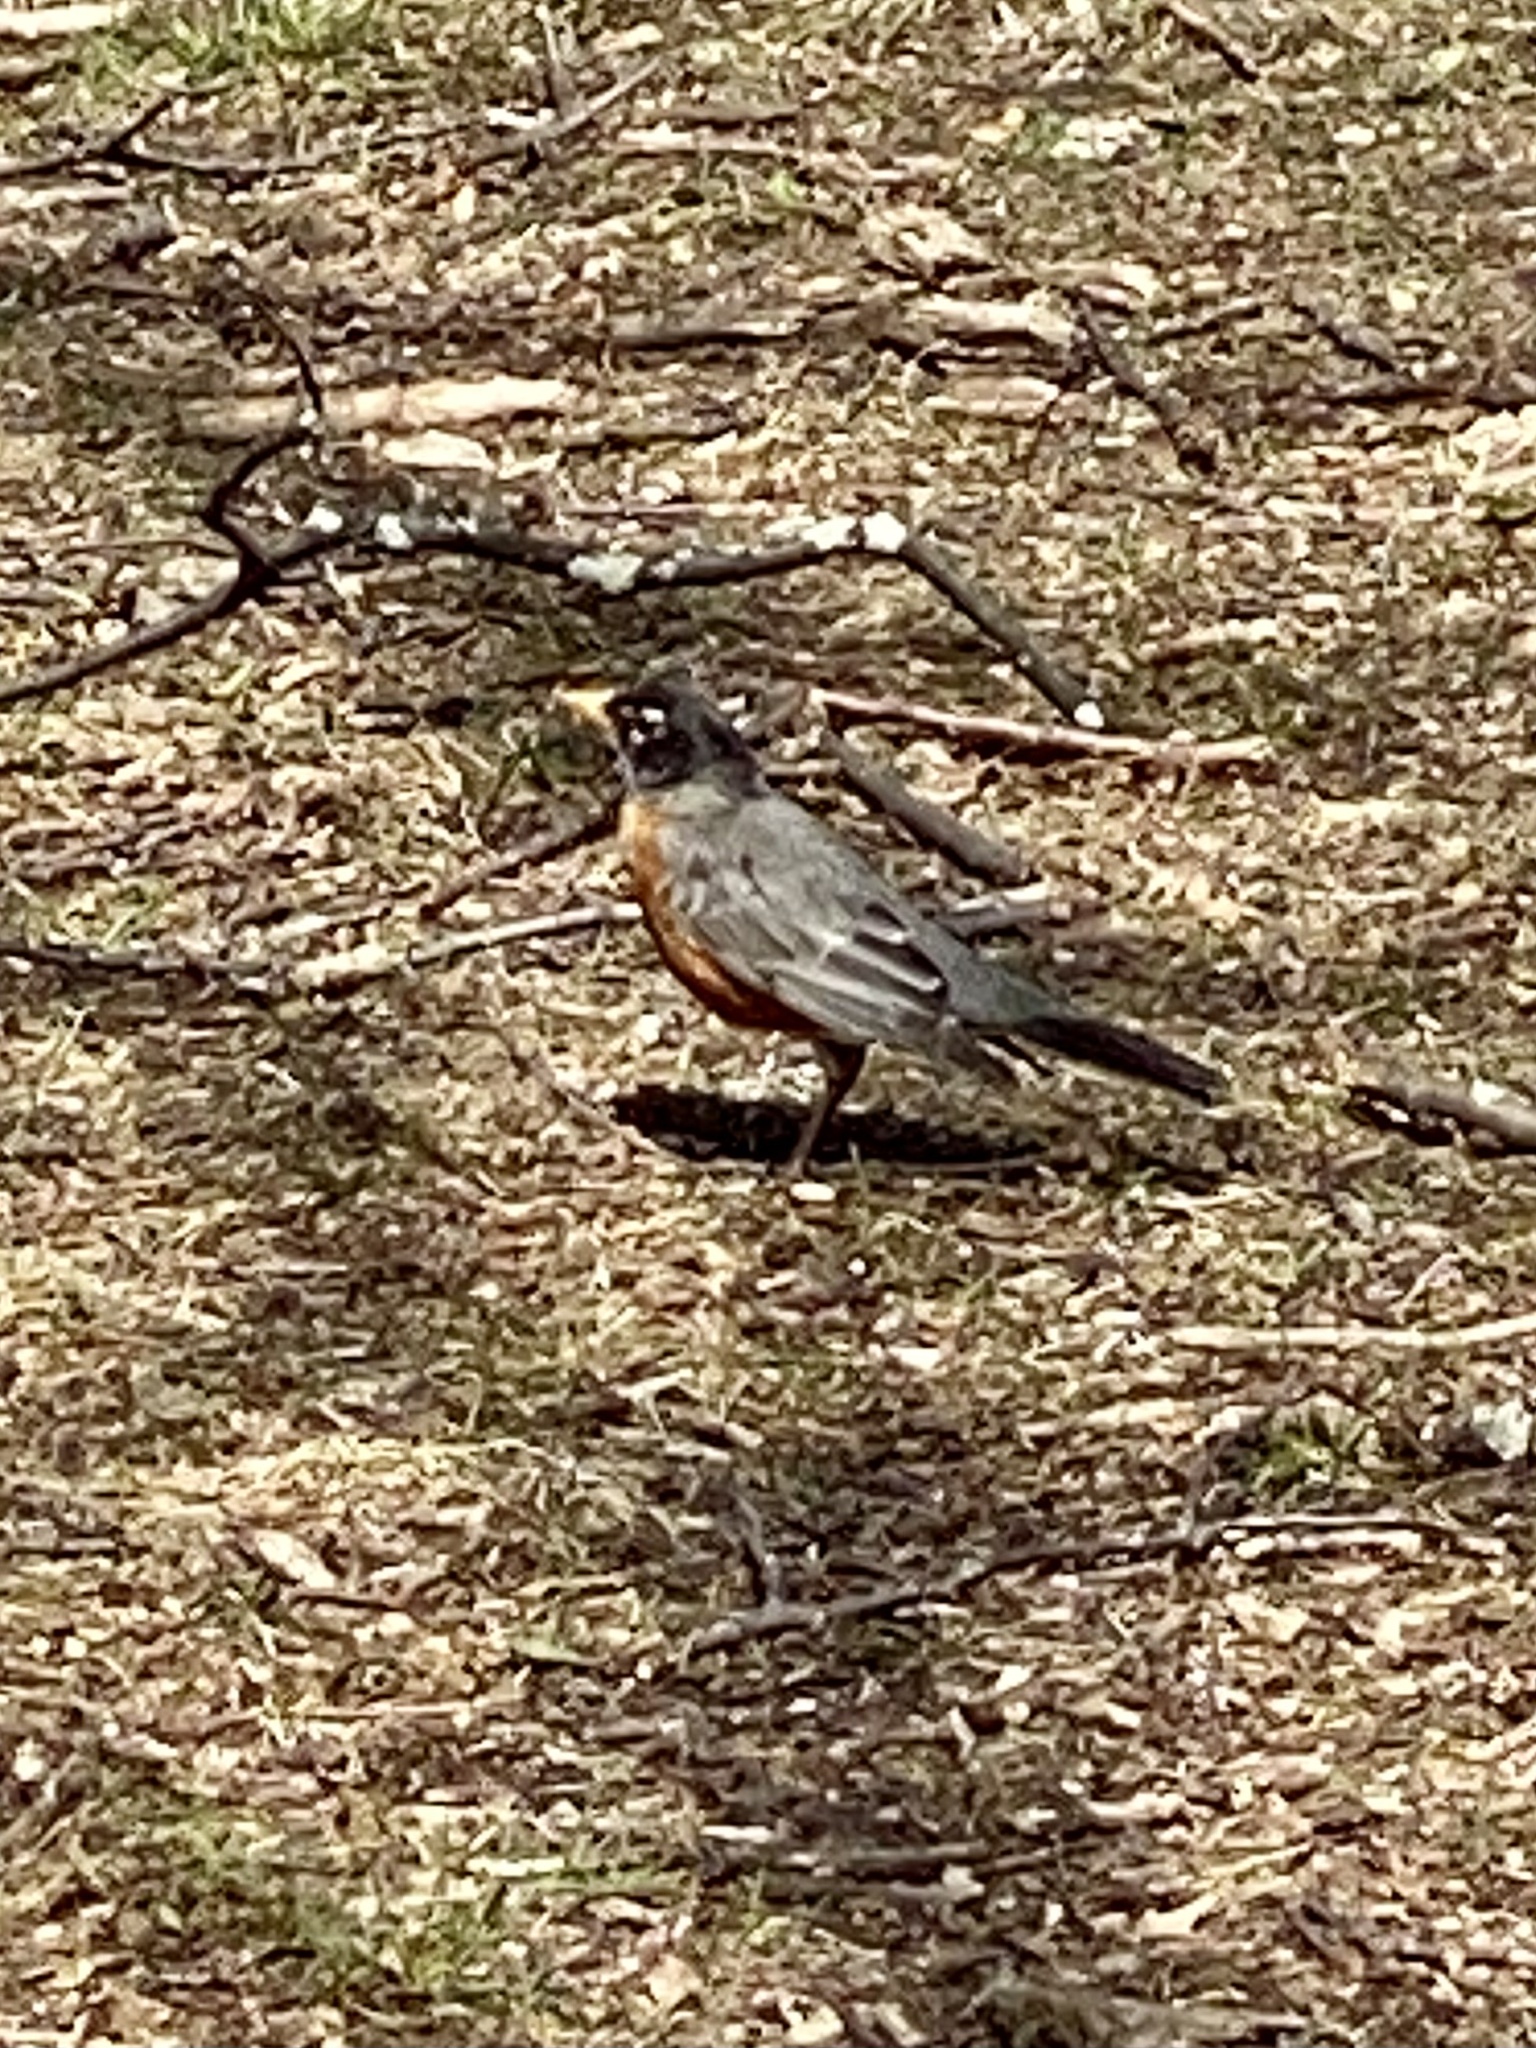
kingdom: Animalia
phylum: Chordata
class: Aves
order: Passeriformes
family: Turdidae
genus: Turdus
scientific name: Turdus migratorius
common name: American robin
